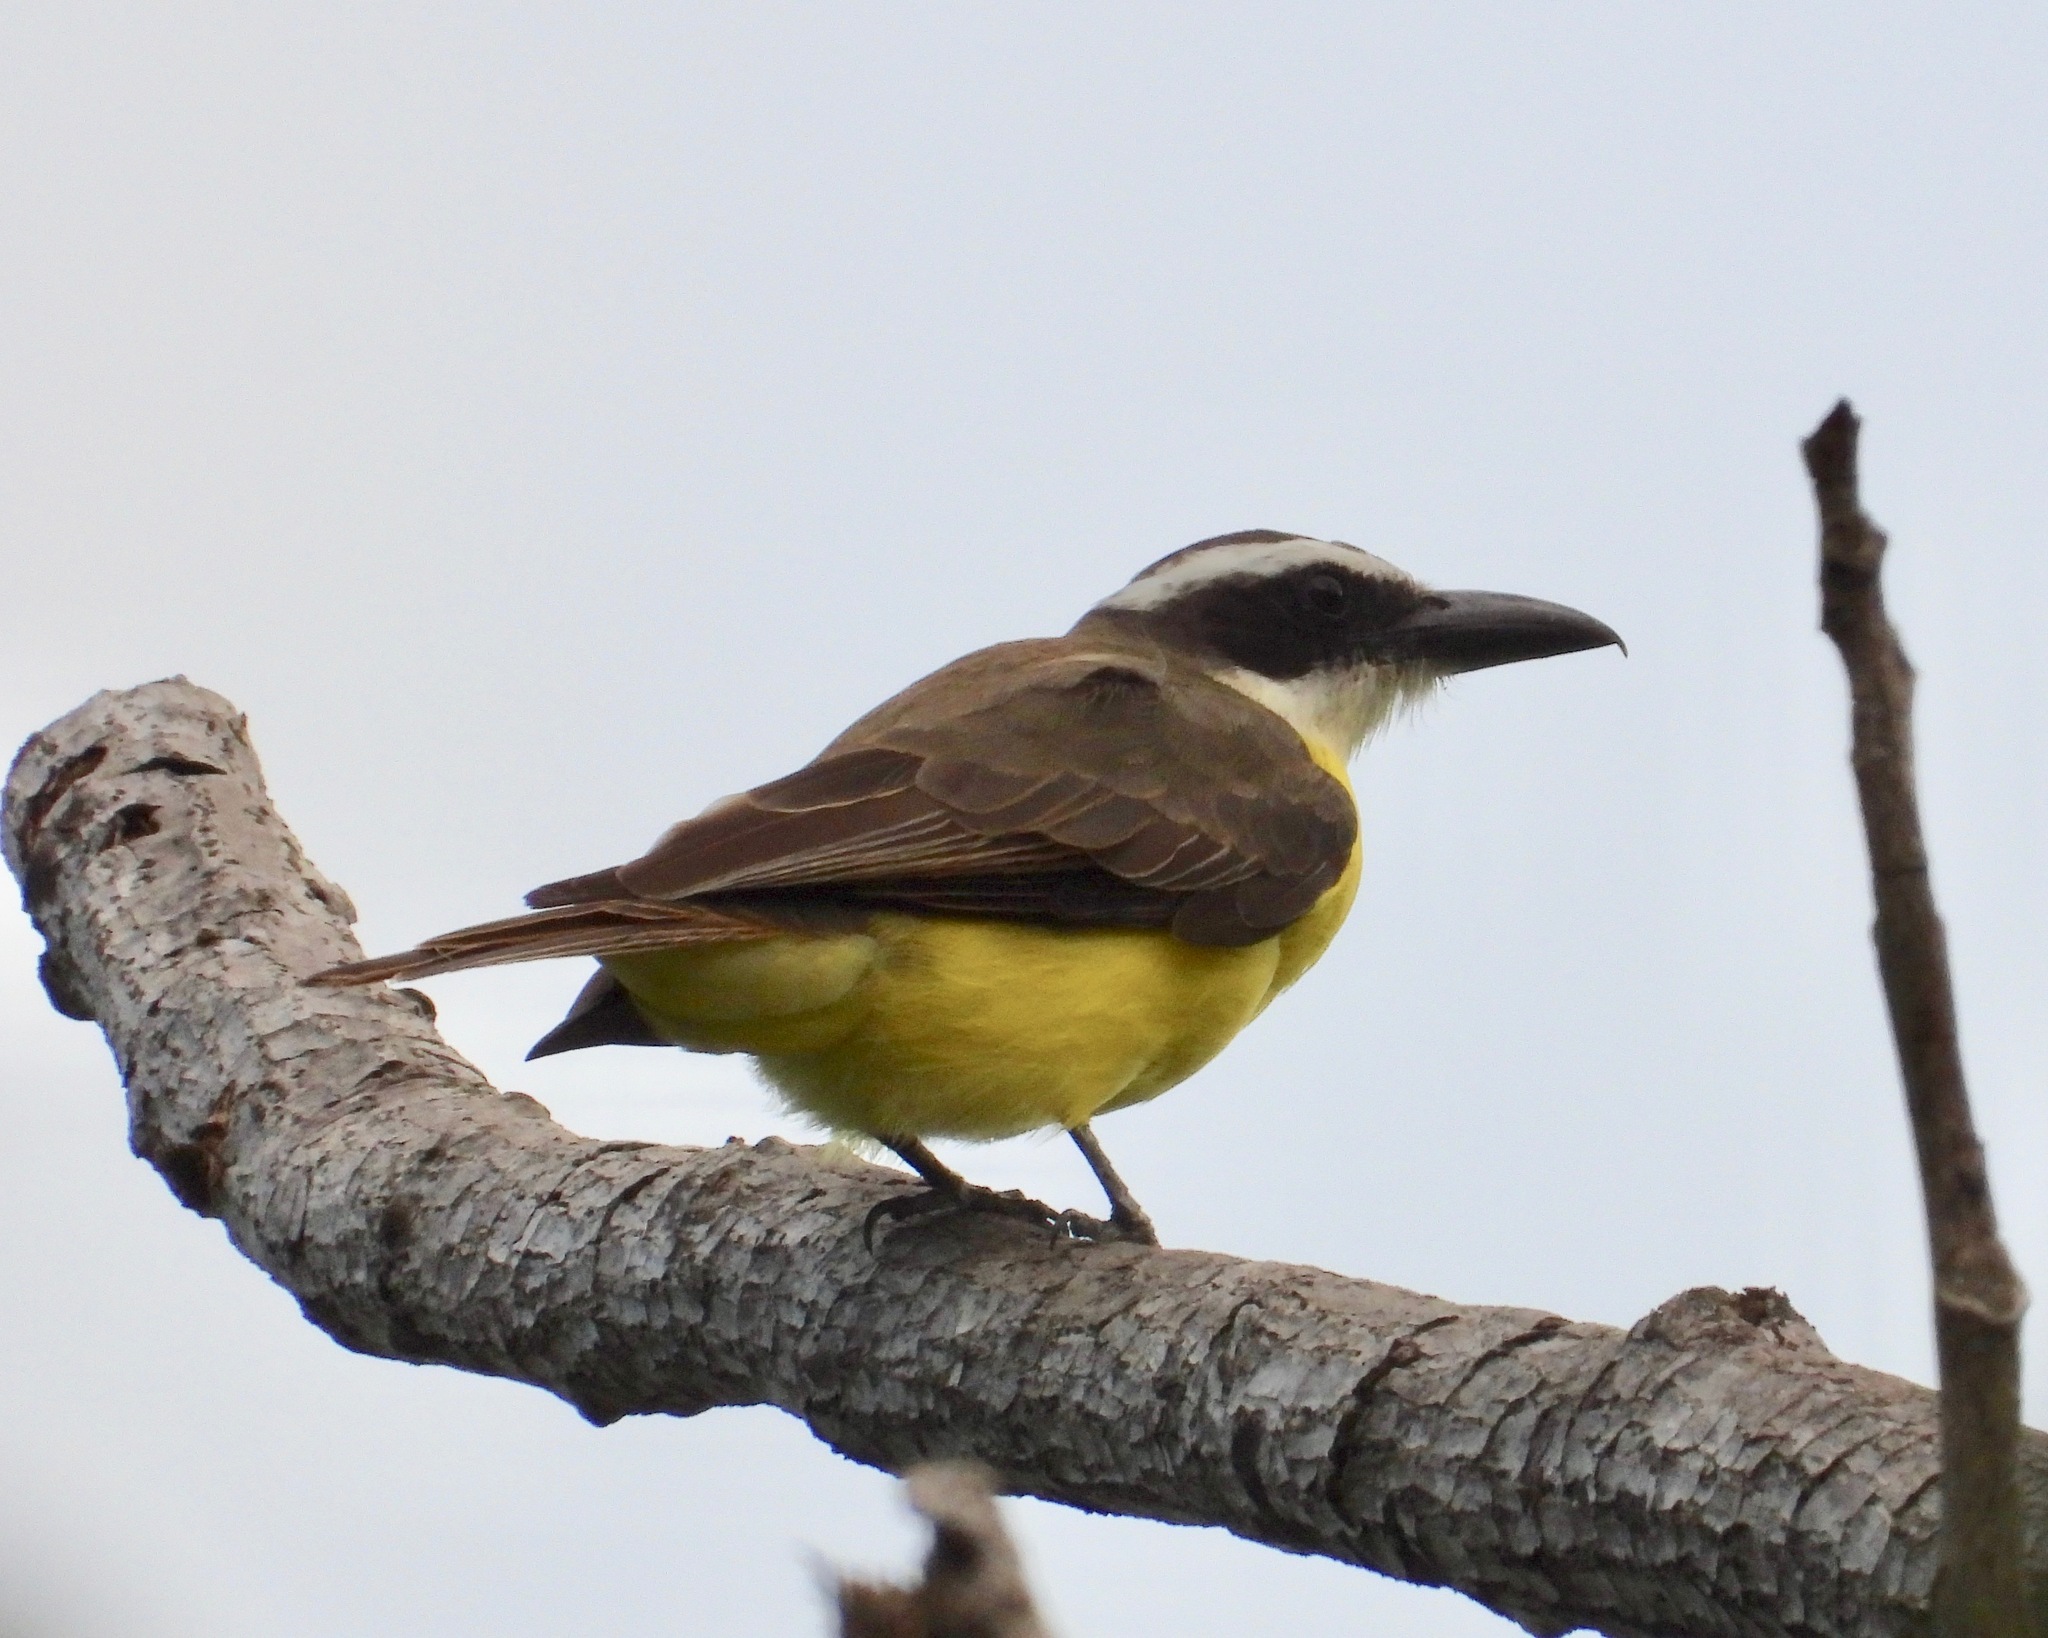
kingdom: Animalia
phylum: Chordata
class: Aves
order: Passeriformes
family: Tyrannidae
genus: Megarynchus
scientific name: Megarynchus pitangua
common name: Boat-billed flycatcher
